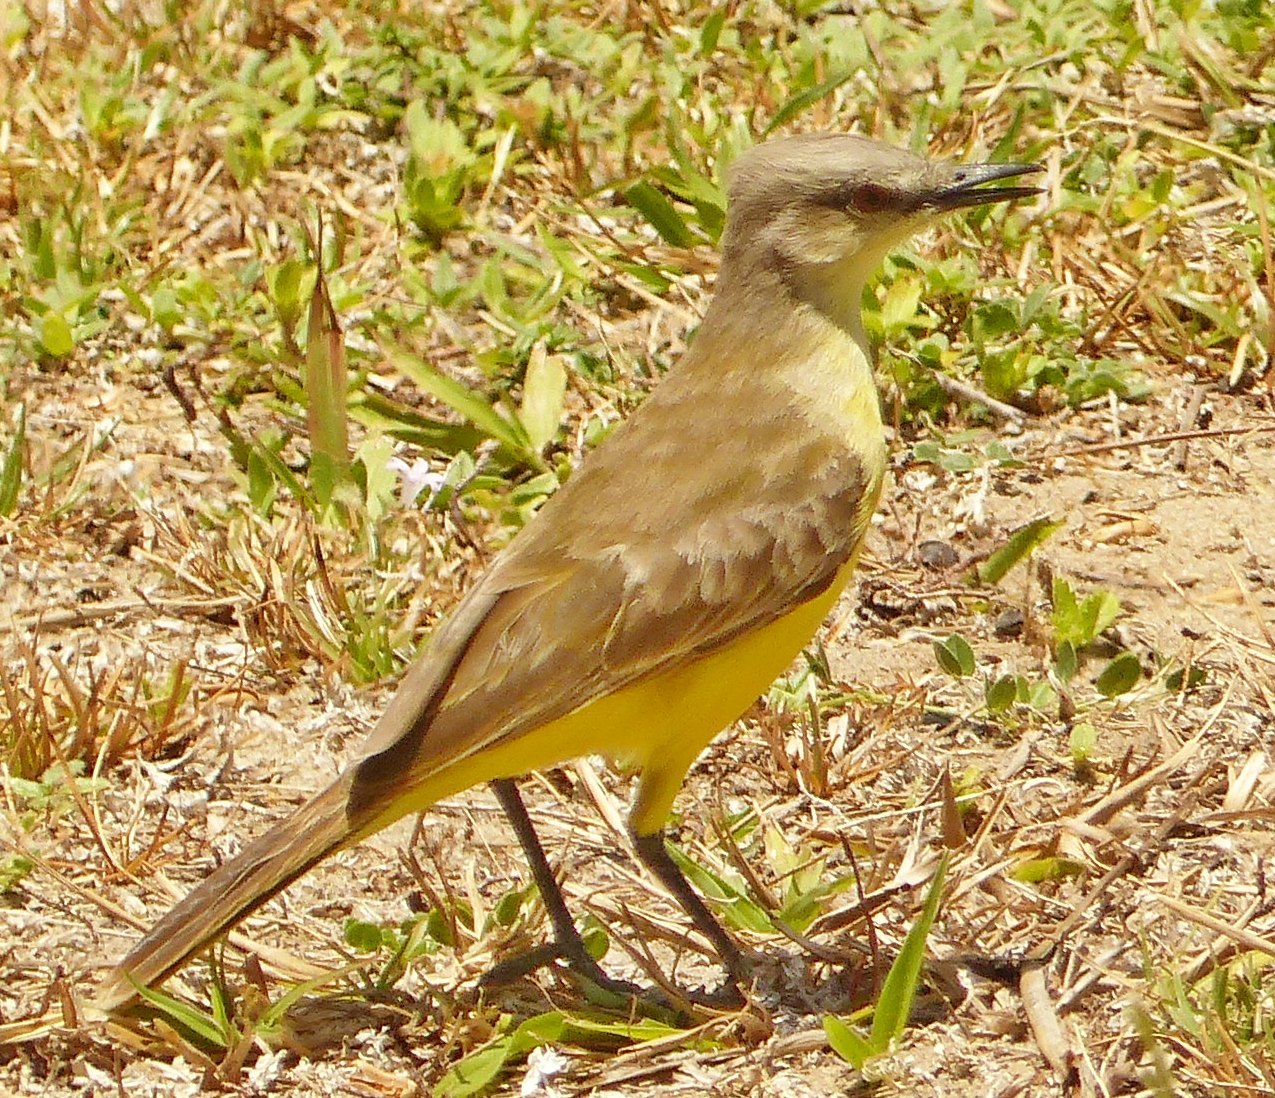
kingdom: Animalia
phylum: Chordata
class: Aves
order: Passeriformes
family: Tyrannidae
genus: Machetornis
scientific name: Machetornis rixosa
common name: Cattle tyrant
